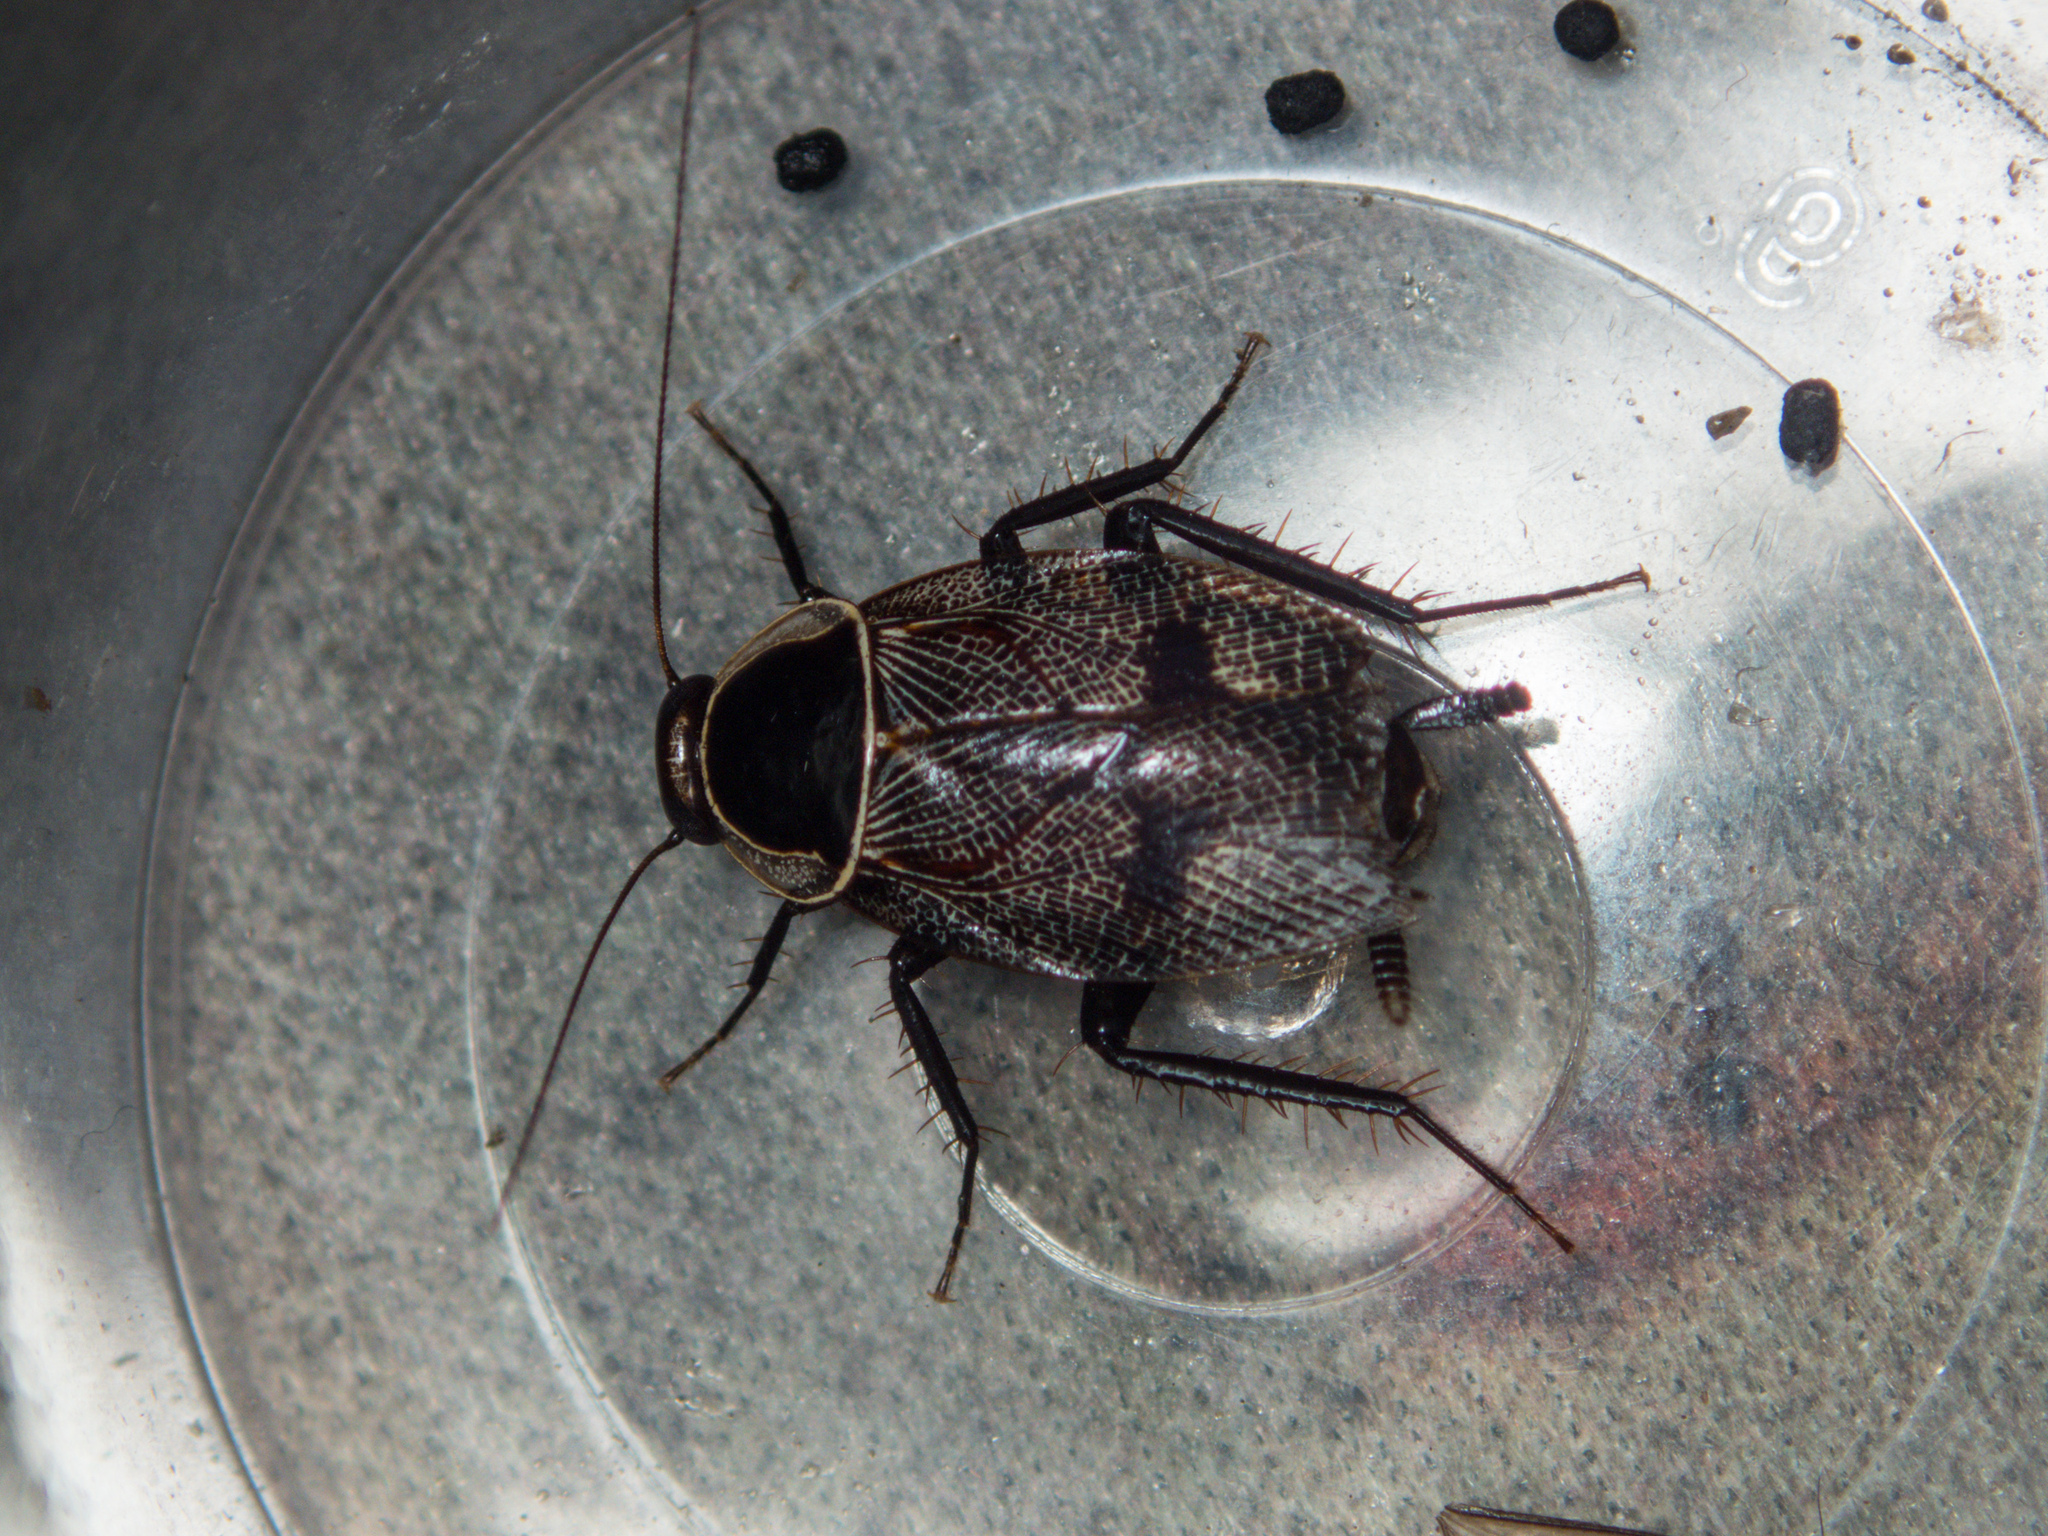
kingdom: Animalia
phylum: Arthropoda
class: Insecta
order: Blattodea
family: Ectobiidae
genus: Allacta
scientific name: Allacta bimaculata
